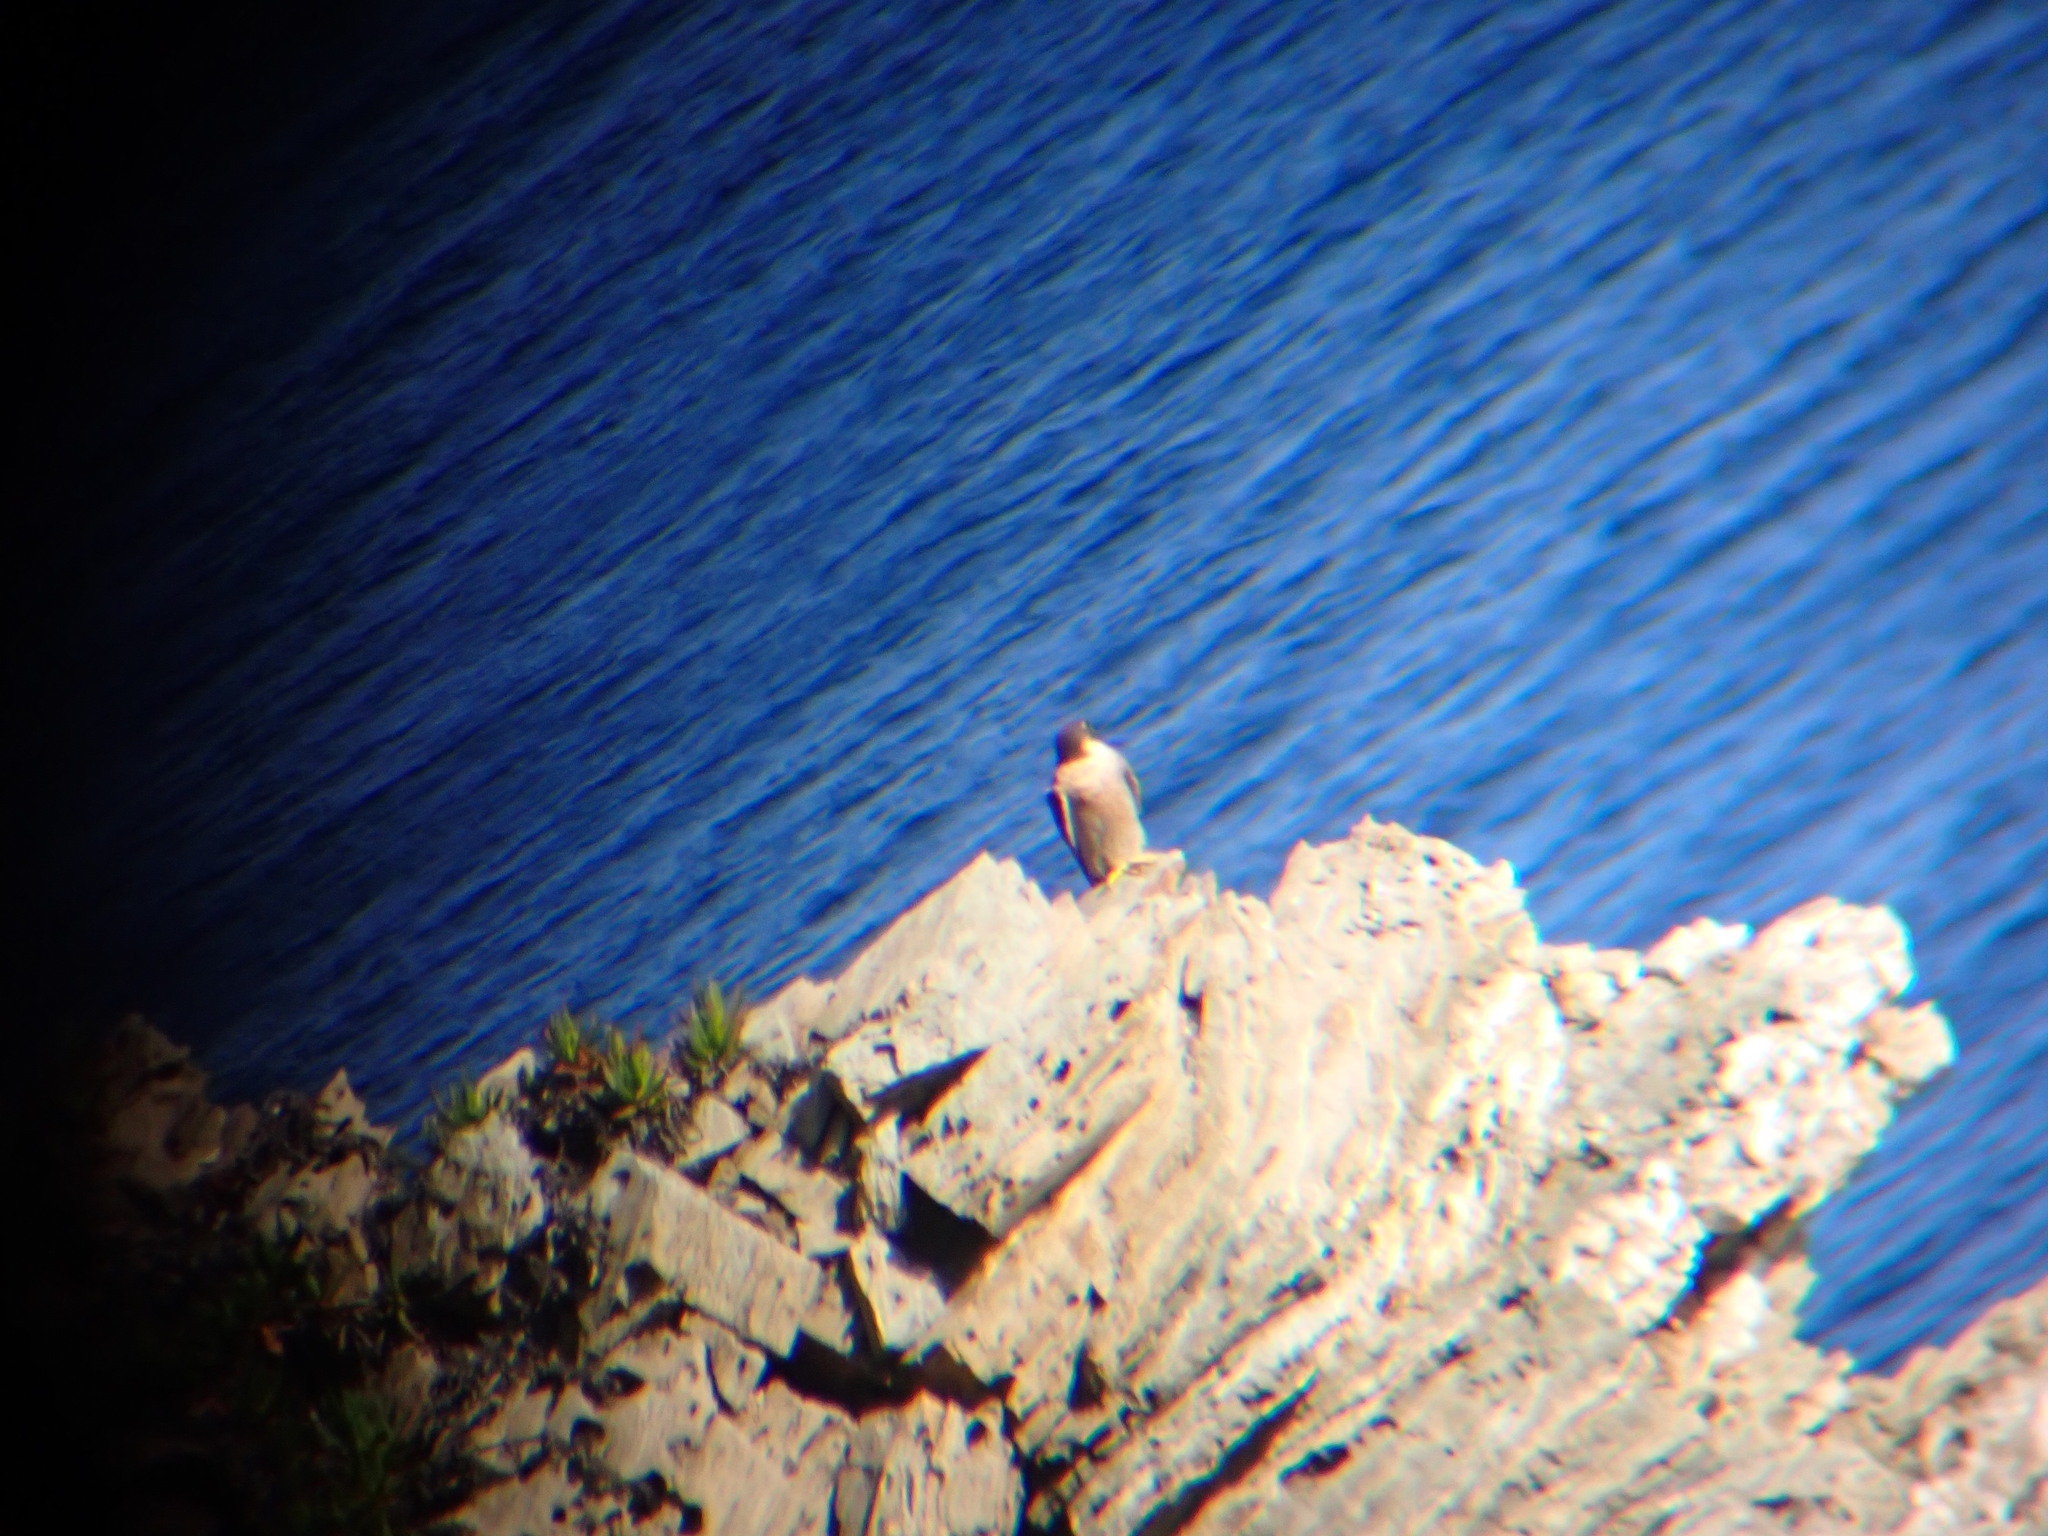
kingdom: Animalia
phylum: Chordata
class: Aves
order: Falconiformes
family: Falconidae
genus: Falco
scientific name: Falco peregrinus
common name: Peregrine falcon
